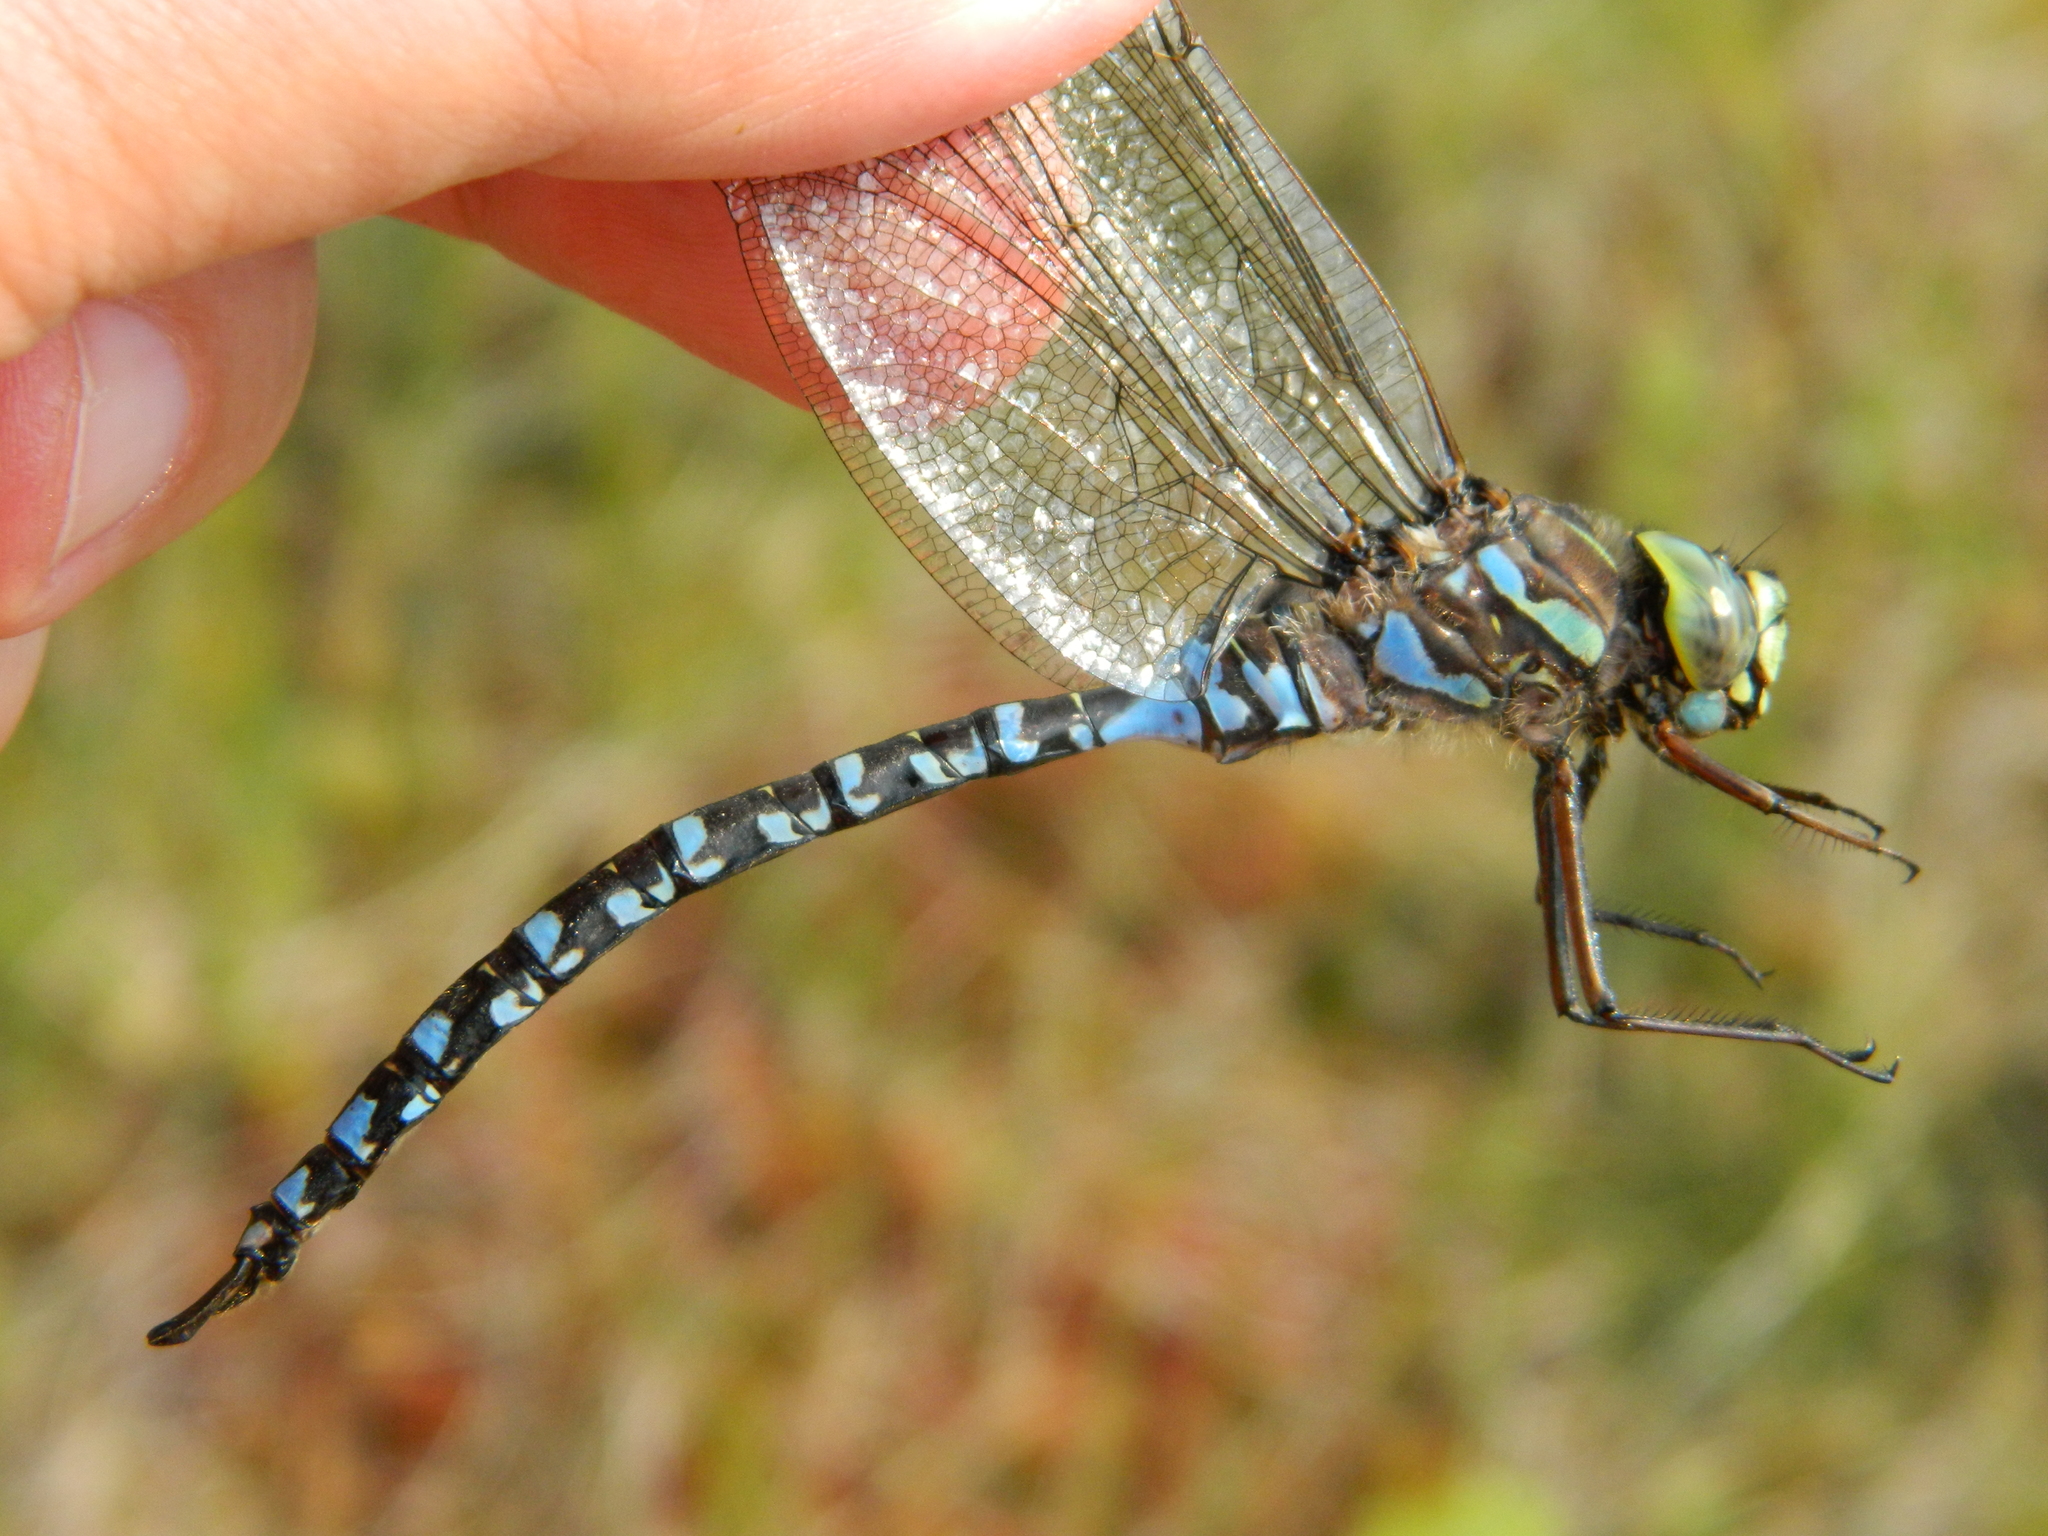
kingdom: Animalia
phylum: Arthropoda
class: Insecta
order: Odonata
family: Aeshnidae
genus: Aeshna
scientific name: Aeshna eremita
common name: Lake darner
